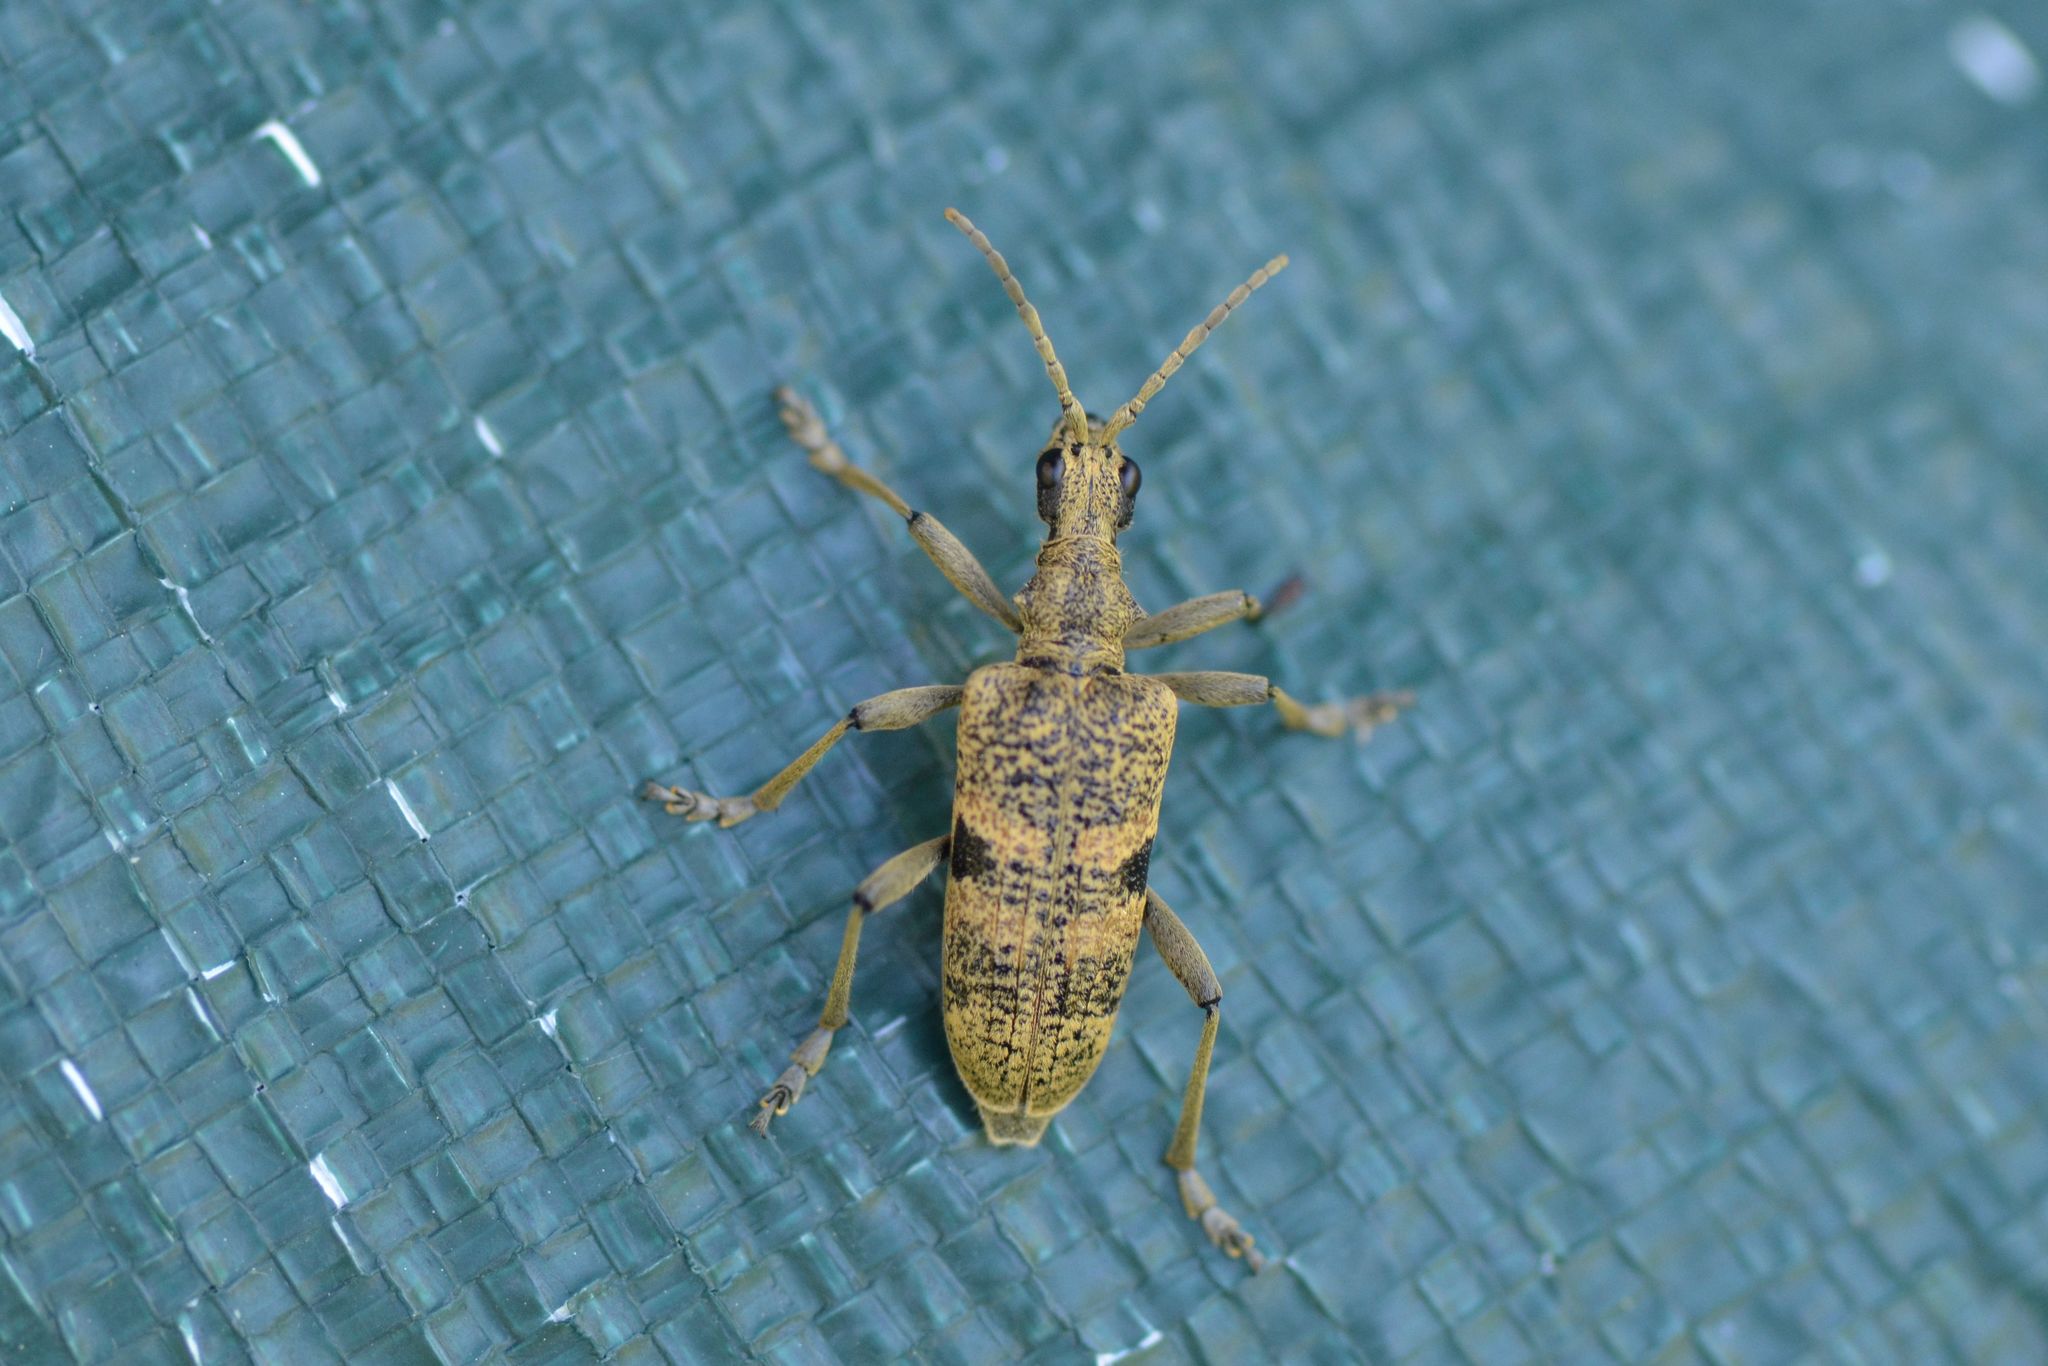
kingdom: Animalia
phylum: Arthropoda
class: Insecta
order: Coleoptera
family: Cerambycidae
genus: Rhagium
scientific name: Rhagium mordax
